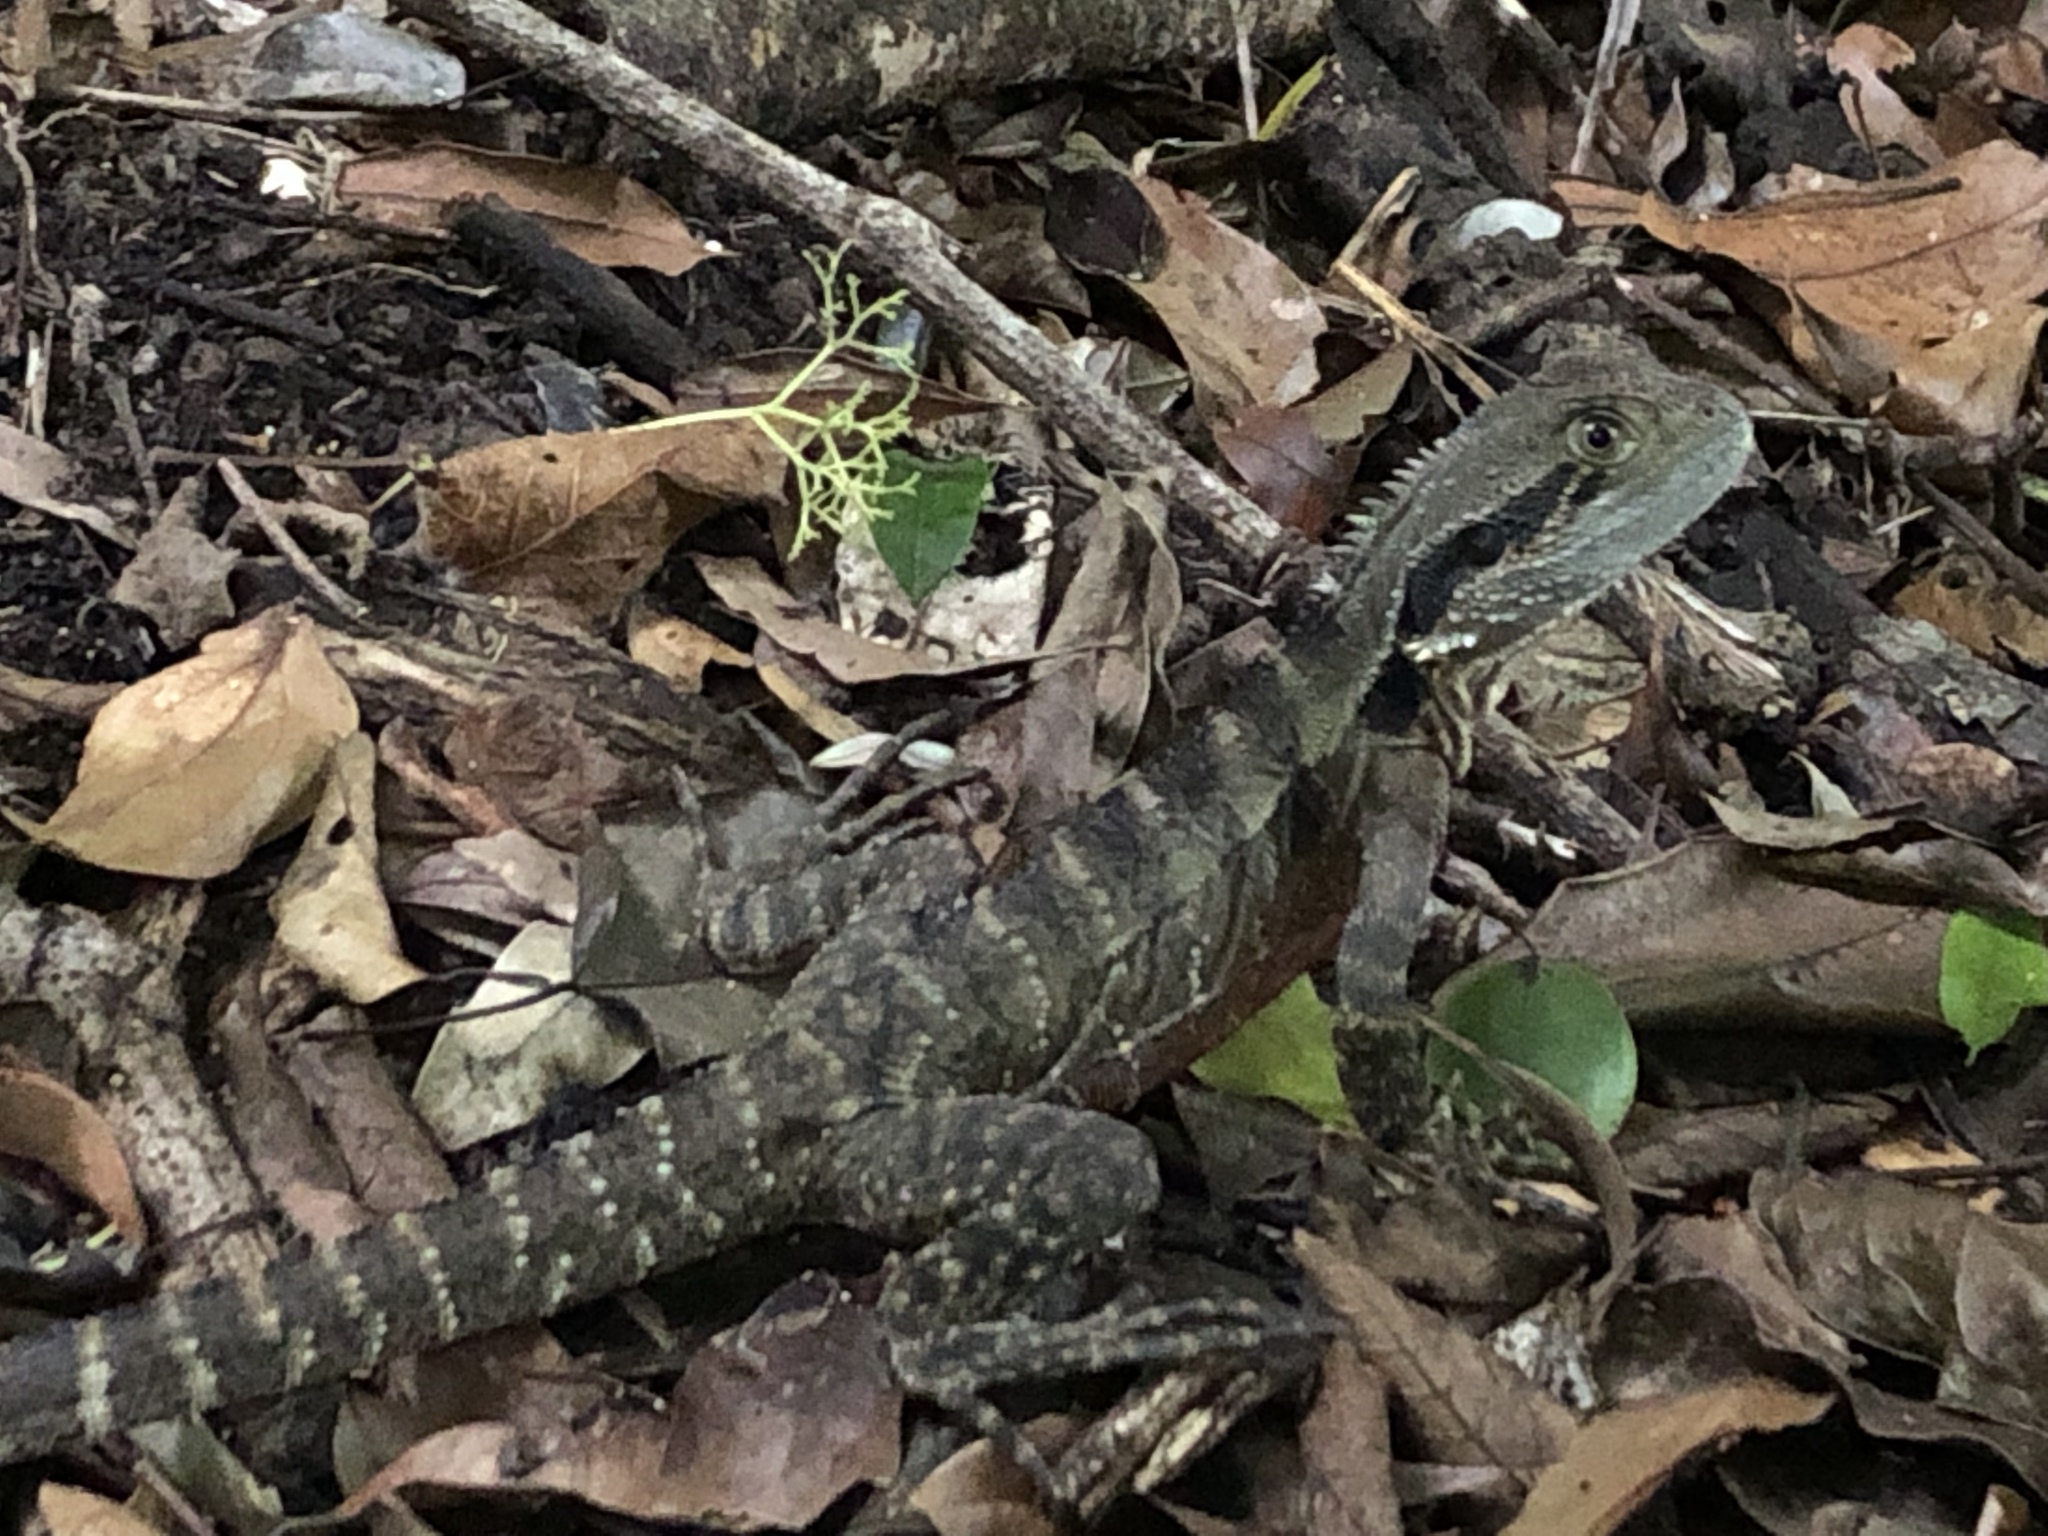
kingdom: Animalia
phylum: Chordata
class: Squamata
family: Agamidae
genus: Intellagama
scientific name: Intellagama lesueurii
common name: Eastern water dragon
